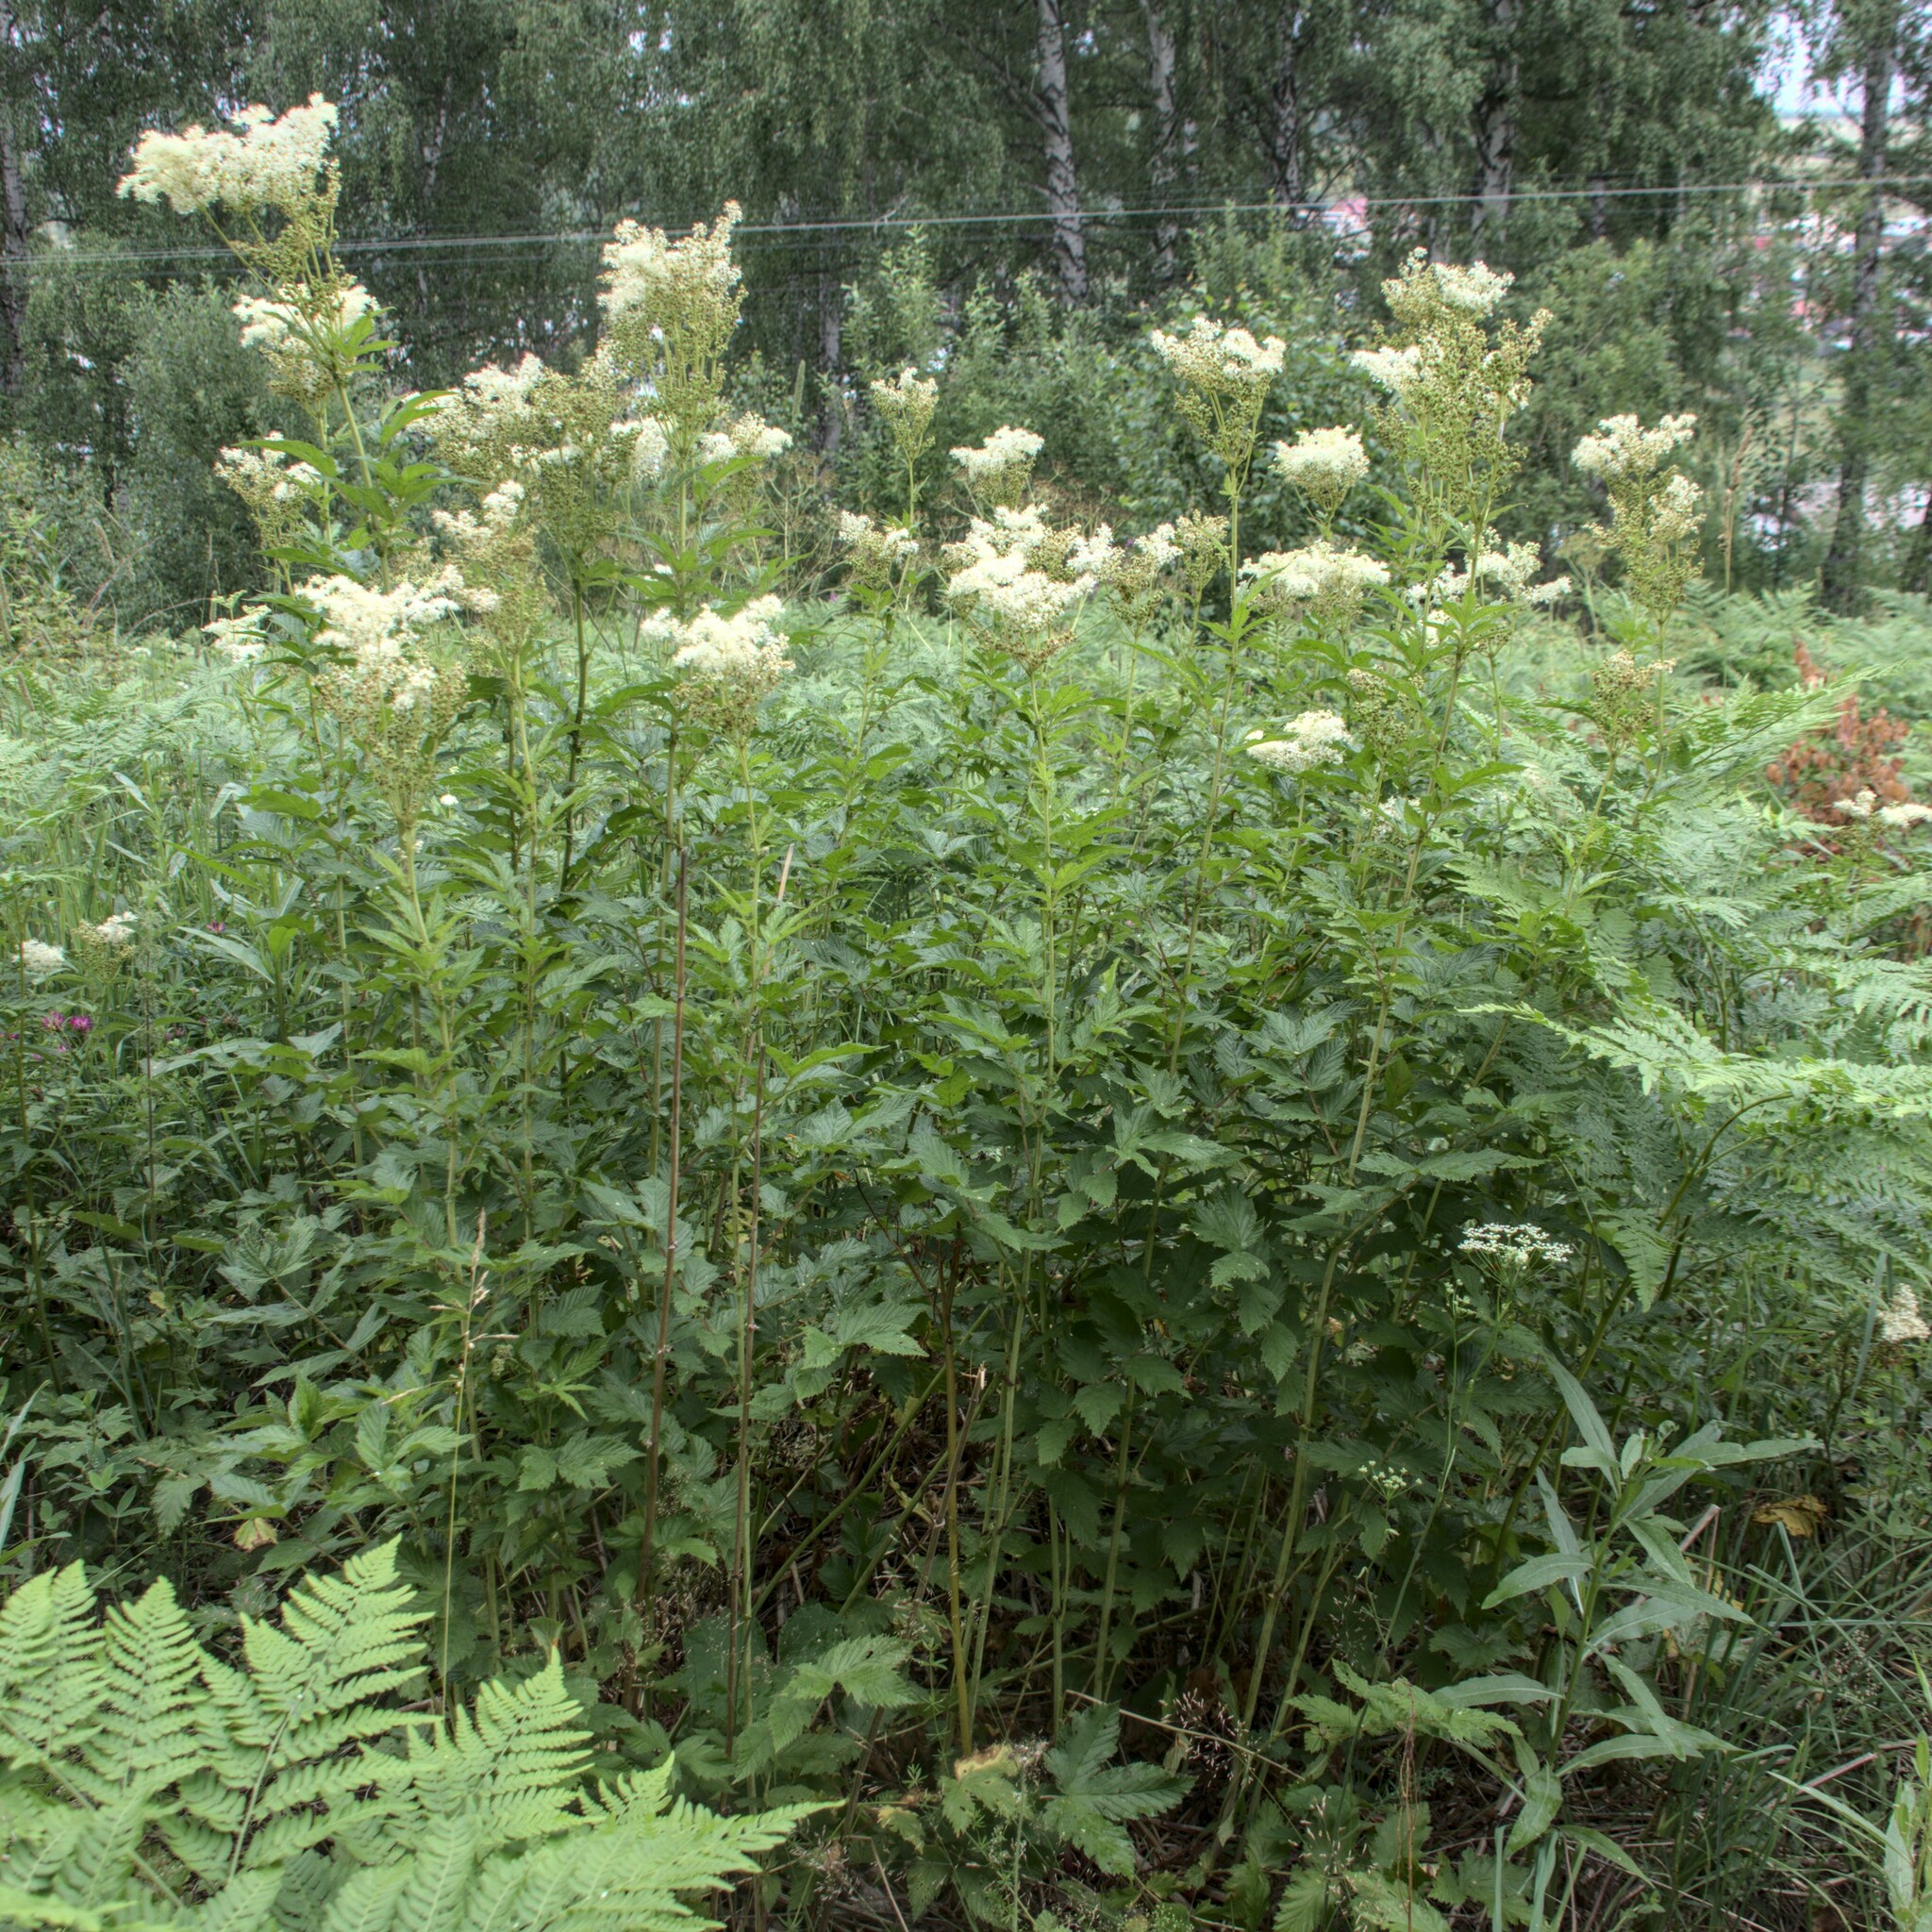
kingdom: Plantae
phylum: Tracheophyta
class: Magnoliopsida
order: Rosales
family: Rosaceae
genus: Filipendula
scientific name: Filipendula ulmaria
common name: Meadowsweet
